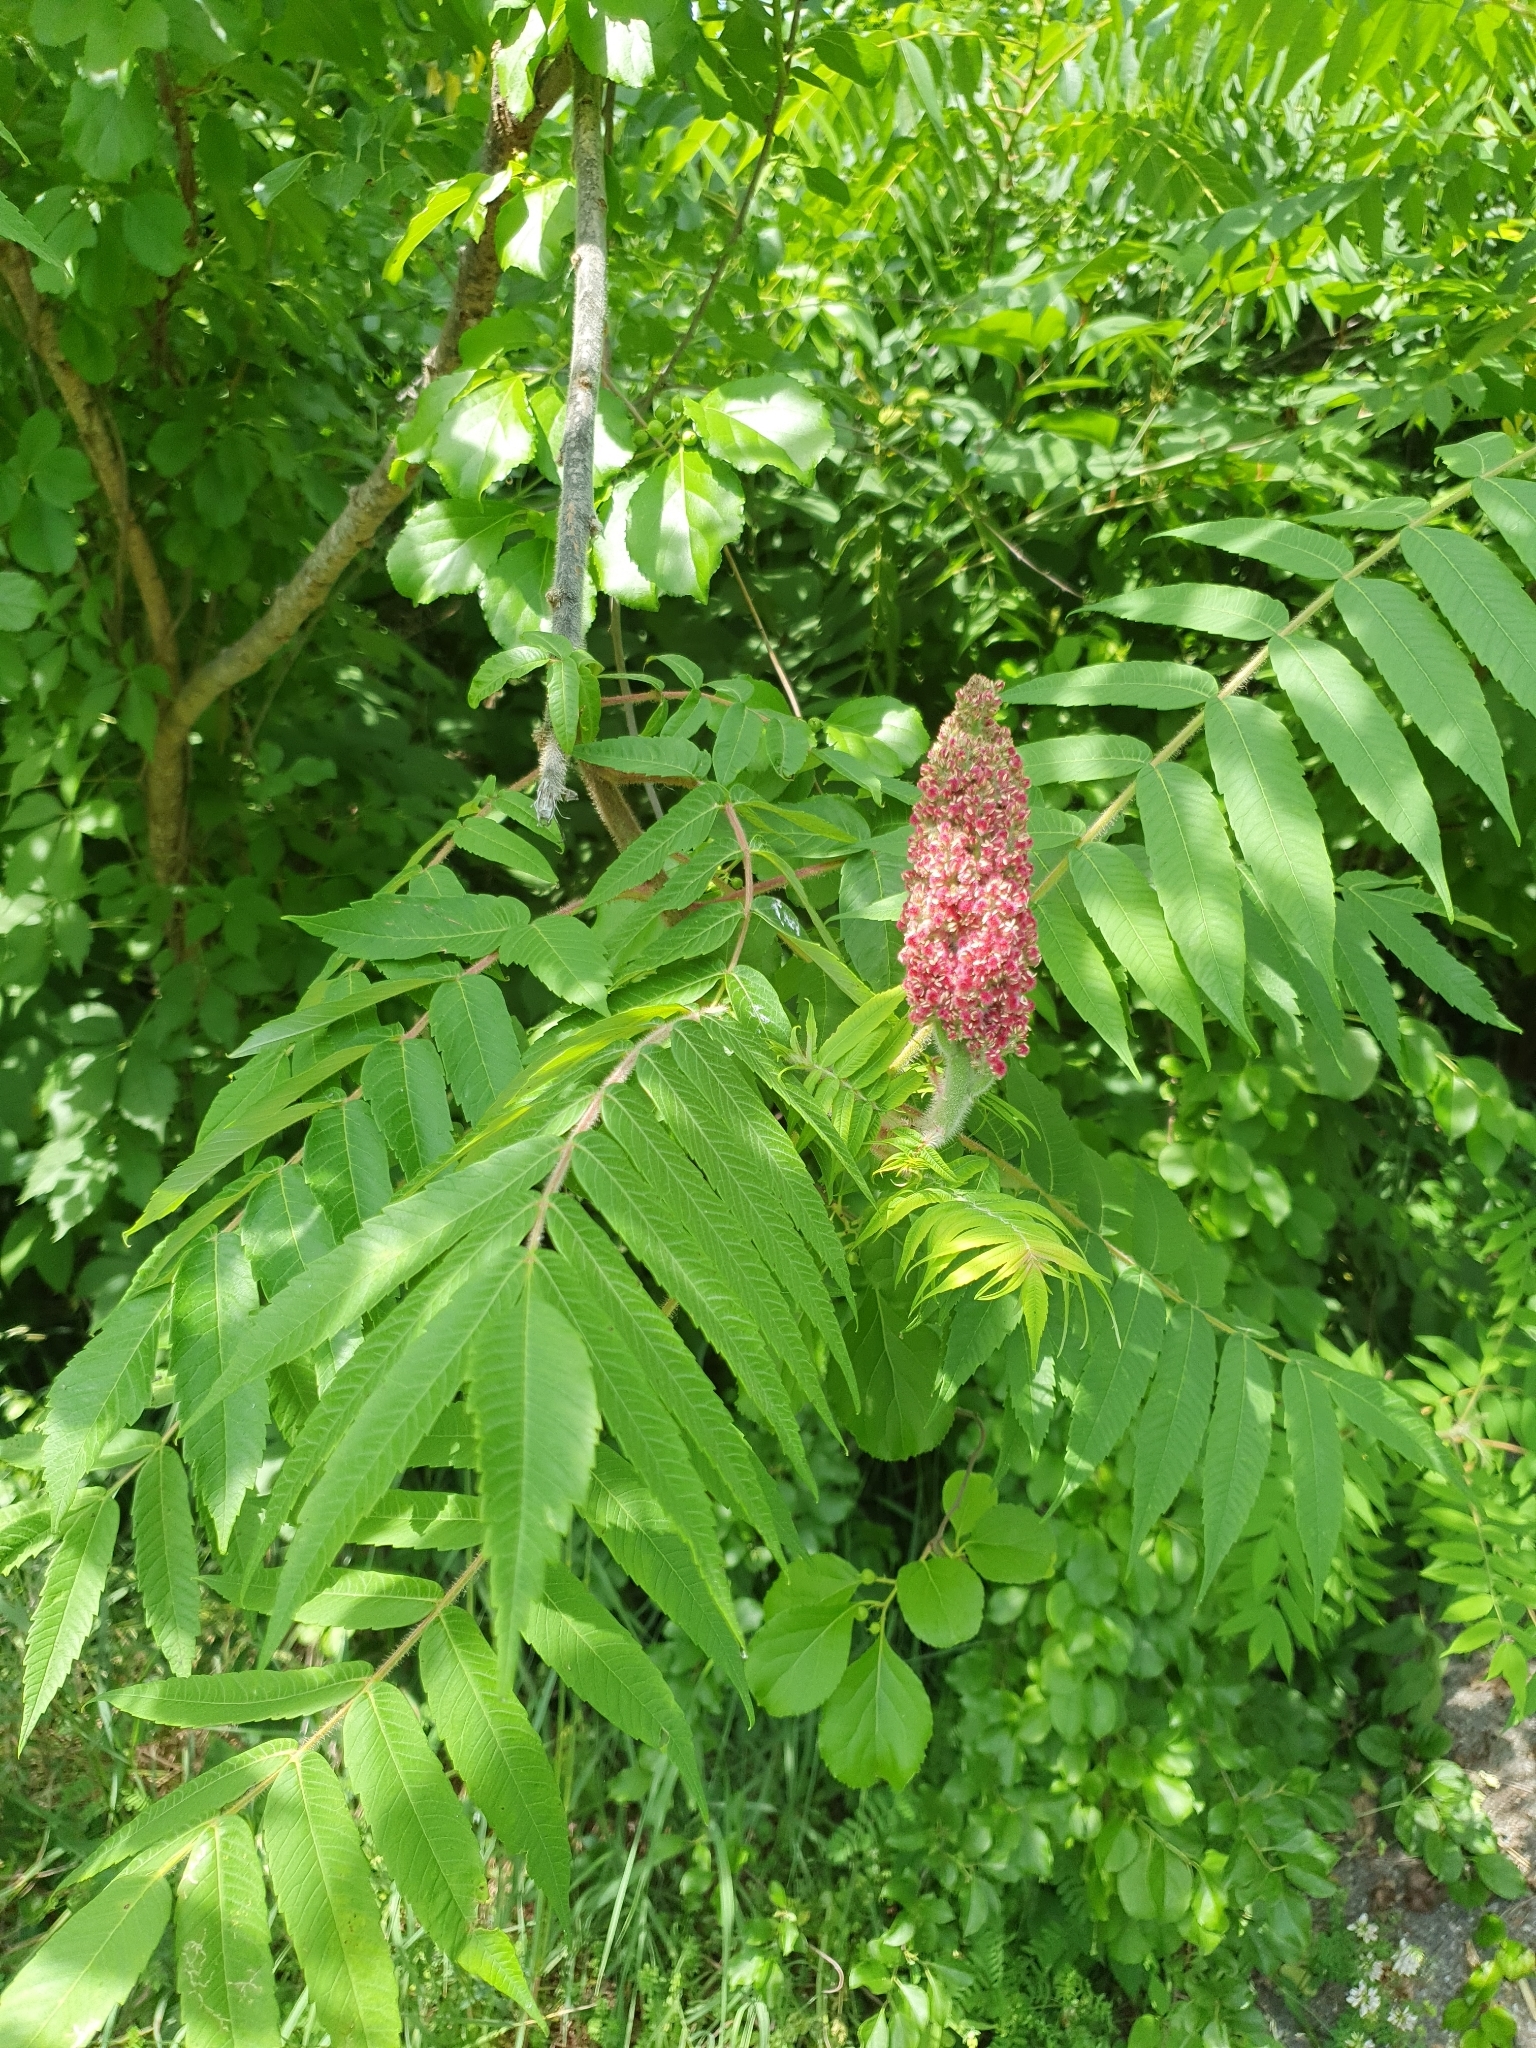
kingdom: Plantae
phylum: Tracheophyta
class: Magnoliopsida
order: Sapindales
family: Anacardiaceae
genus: Rhus
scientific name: Rhus typhina
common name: Staghorn sumac
